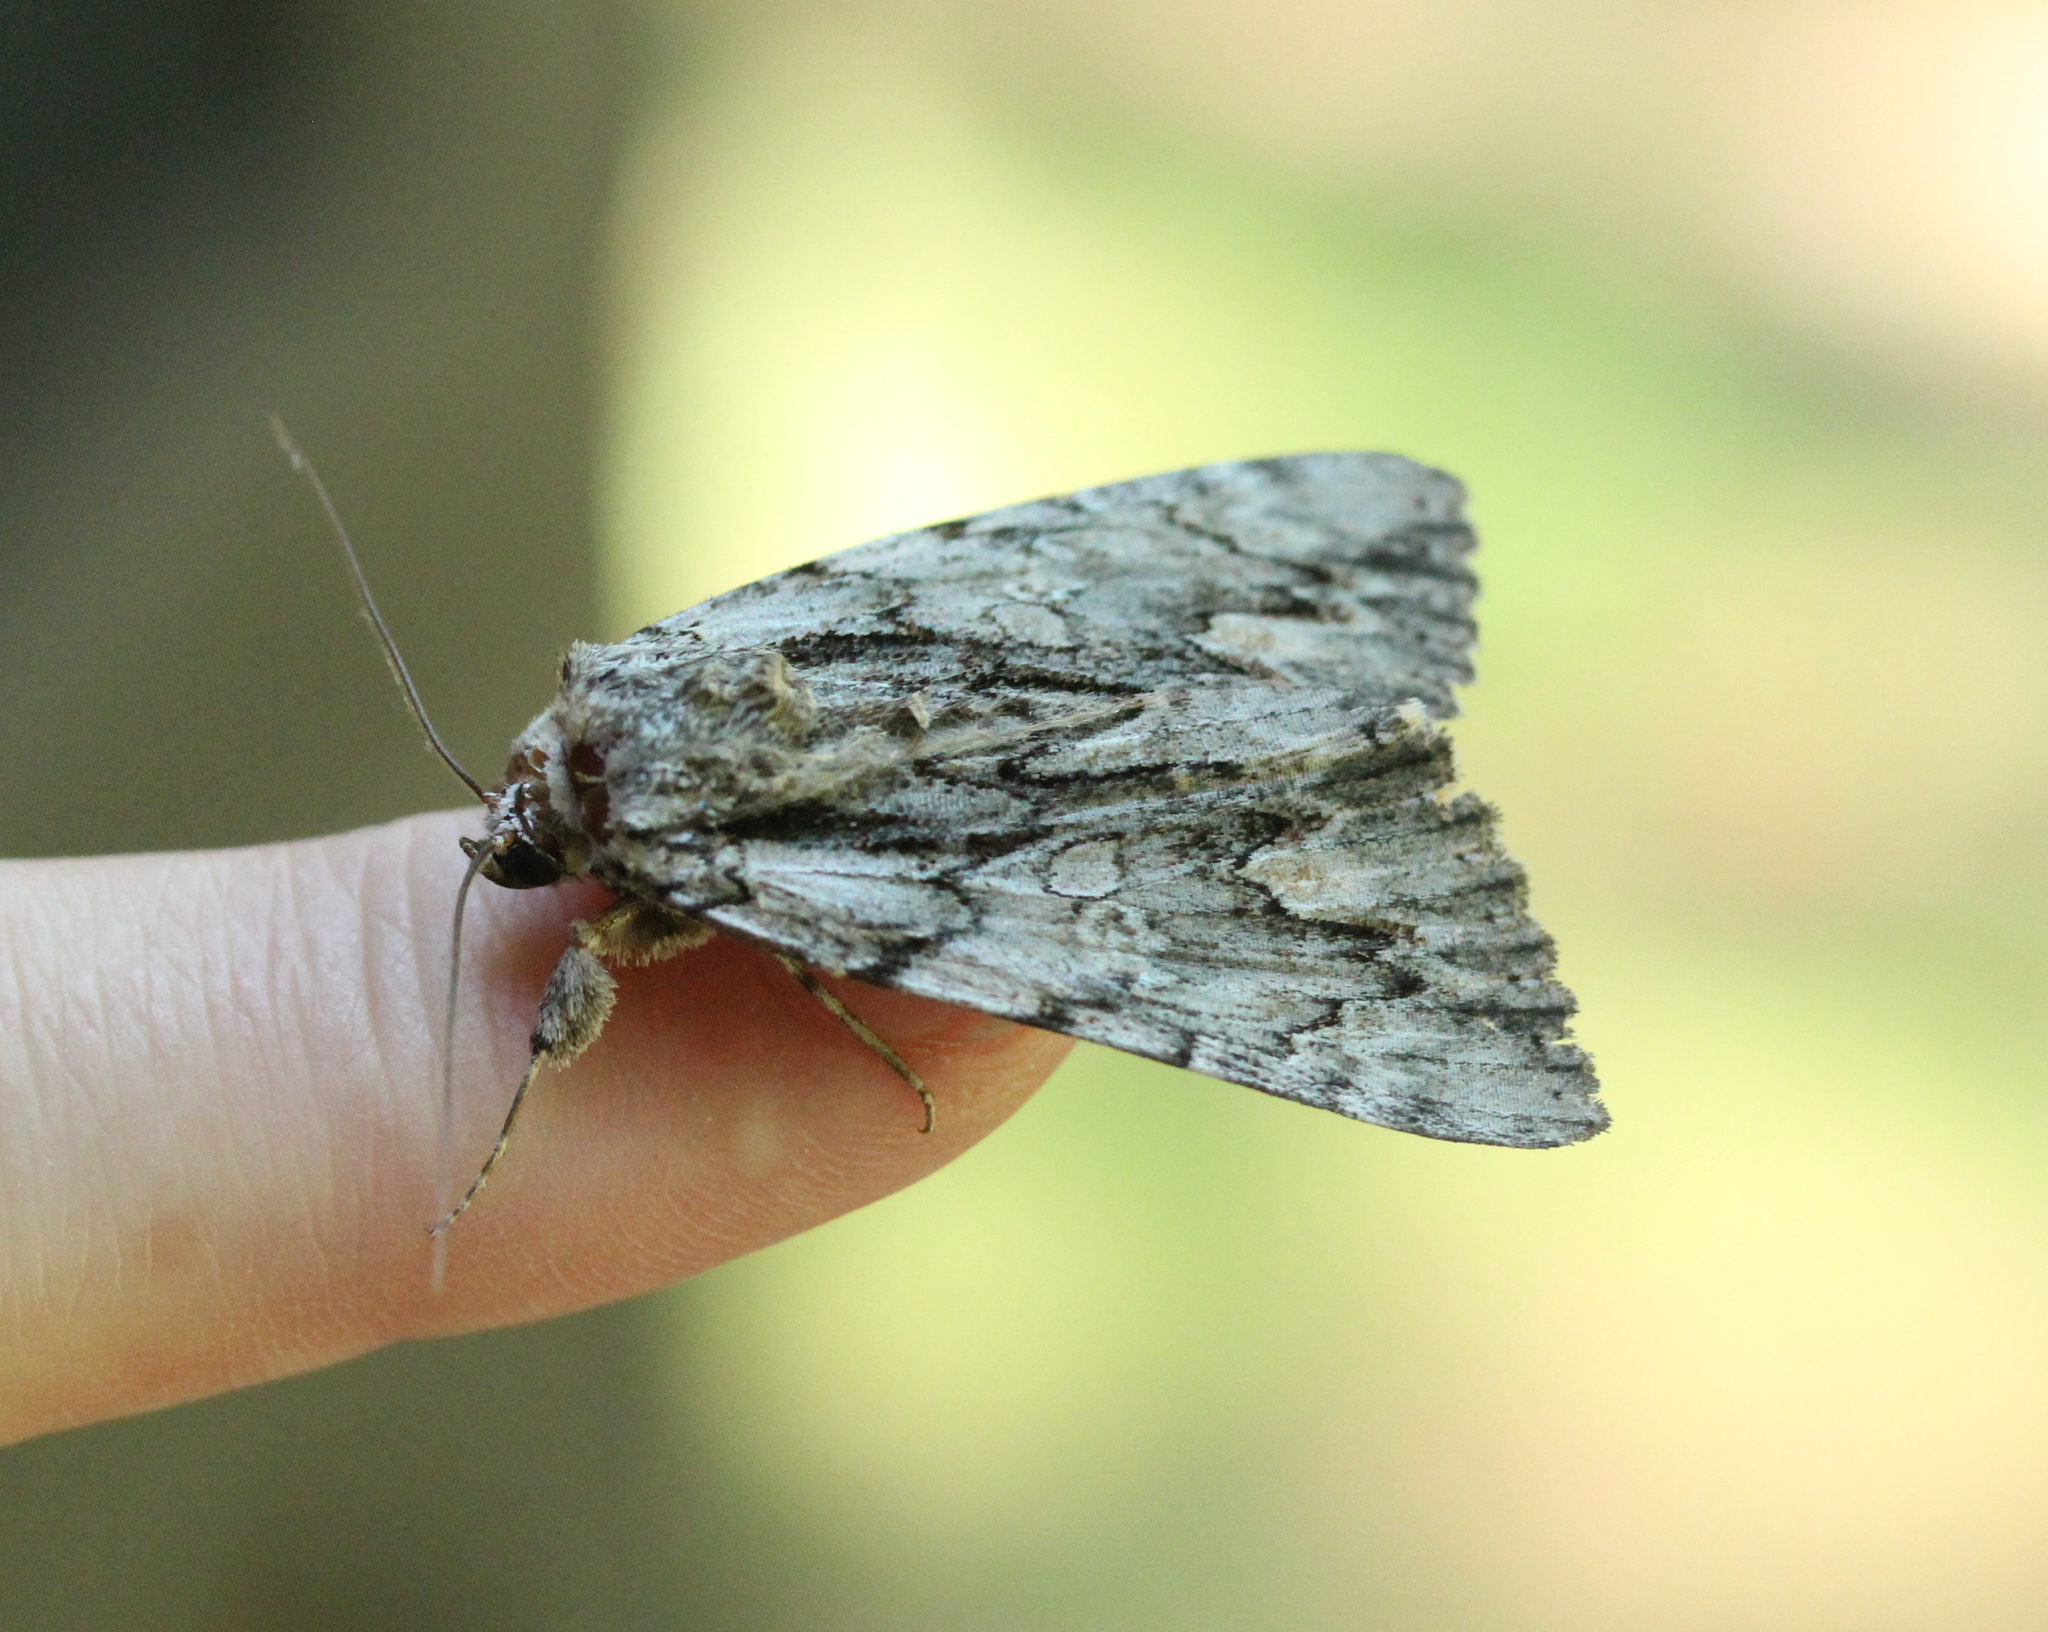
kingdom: Animalia
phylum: Arthropoda
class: Insecta
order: Lepidoptera
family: Erebidae
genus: Catocala
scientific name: Catocala coccinata
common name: Scarlet underwing
